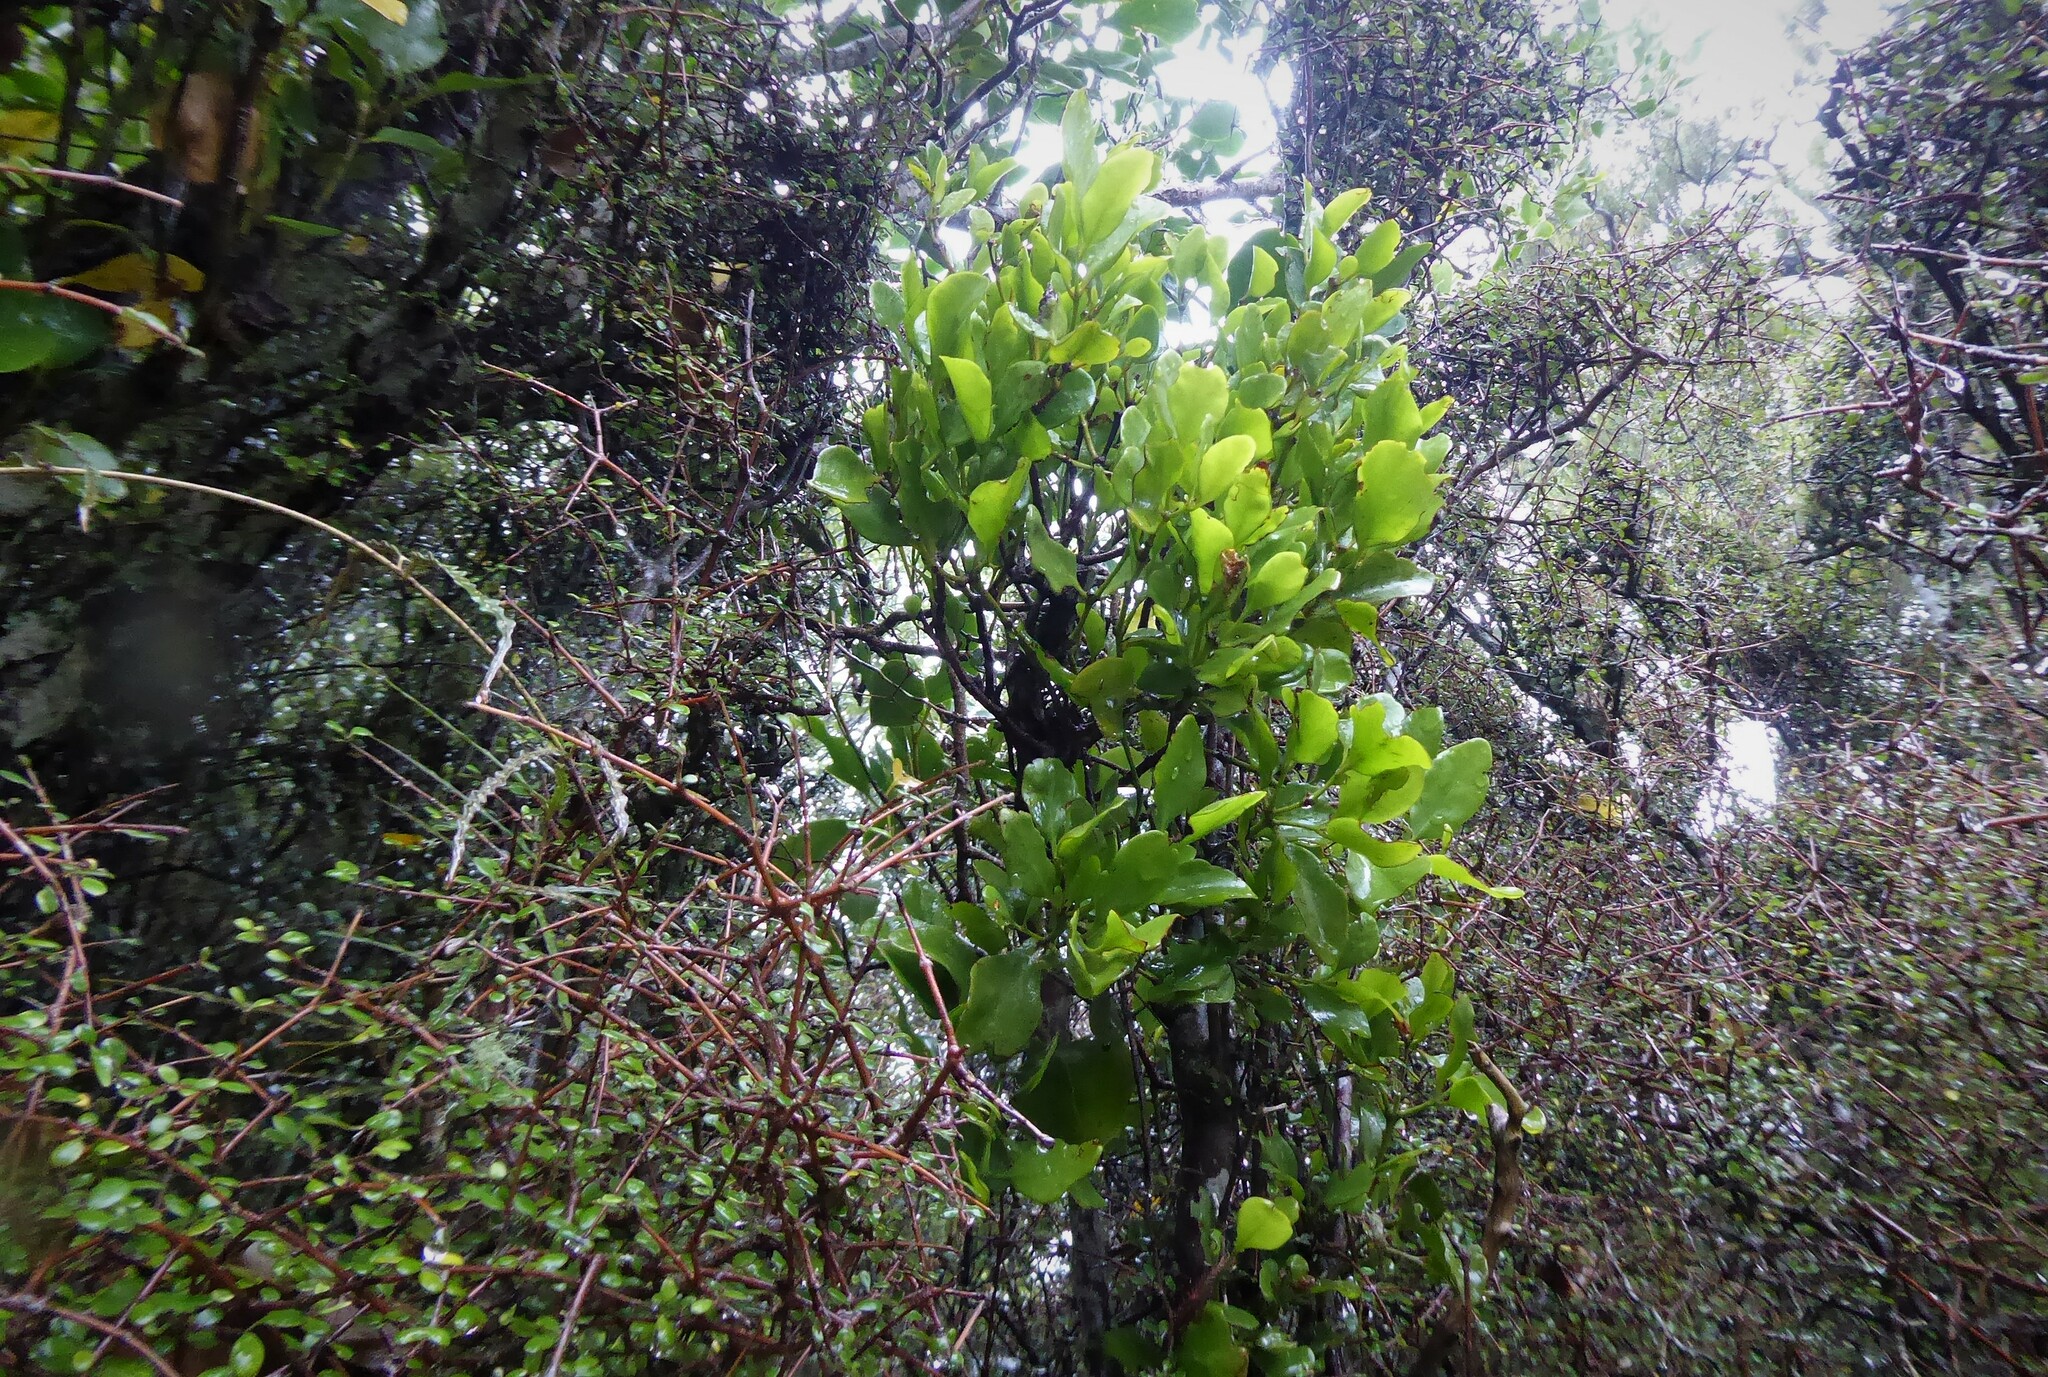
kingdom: Plantae
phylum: Tracheophyta
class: Magnoliopsida
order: Santalales
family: Loranthaceae
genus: Ileostylus
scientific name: Ileostylus micranthus
